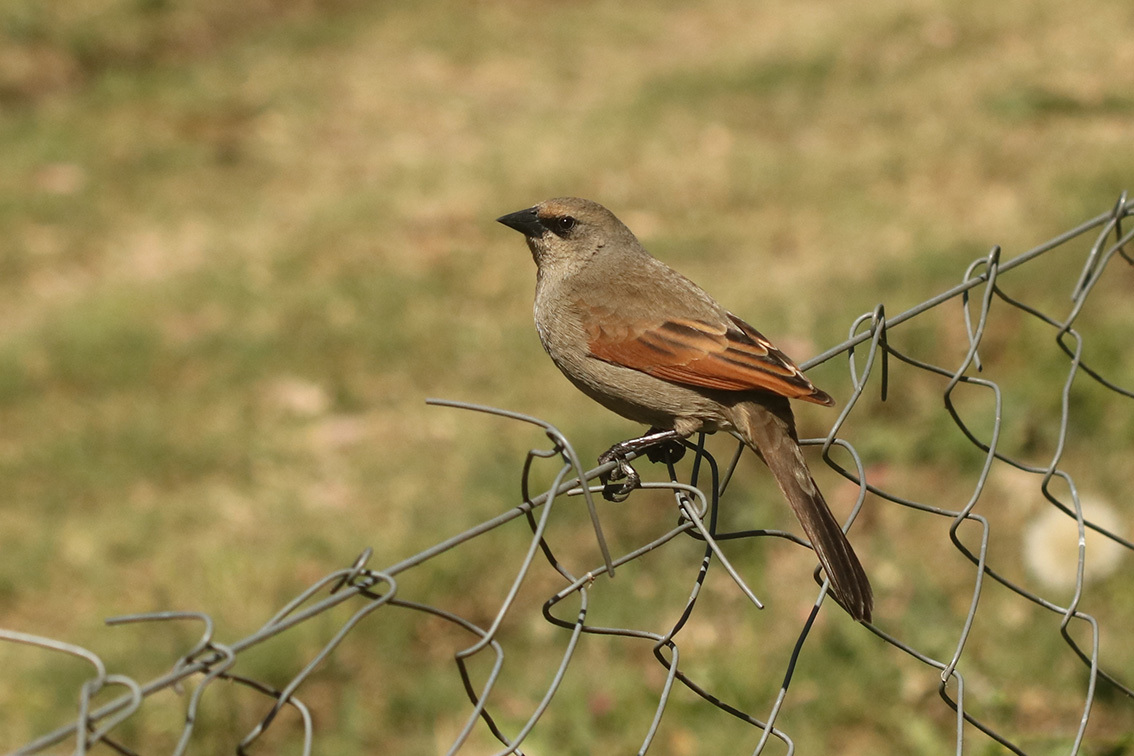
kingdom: Animalia
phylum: Chordata
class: Aves
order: Passeriformes
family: Icteridae
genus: Agelaioides
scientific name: Agelaioides badius
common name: Baywing
